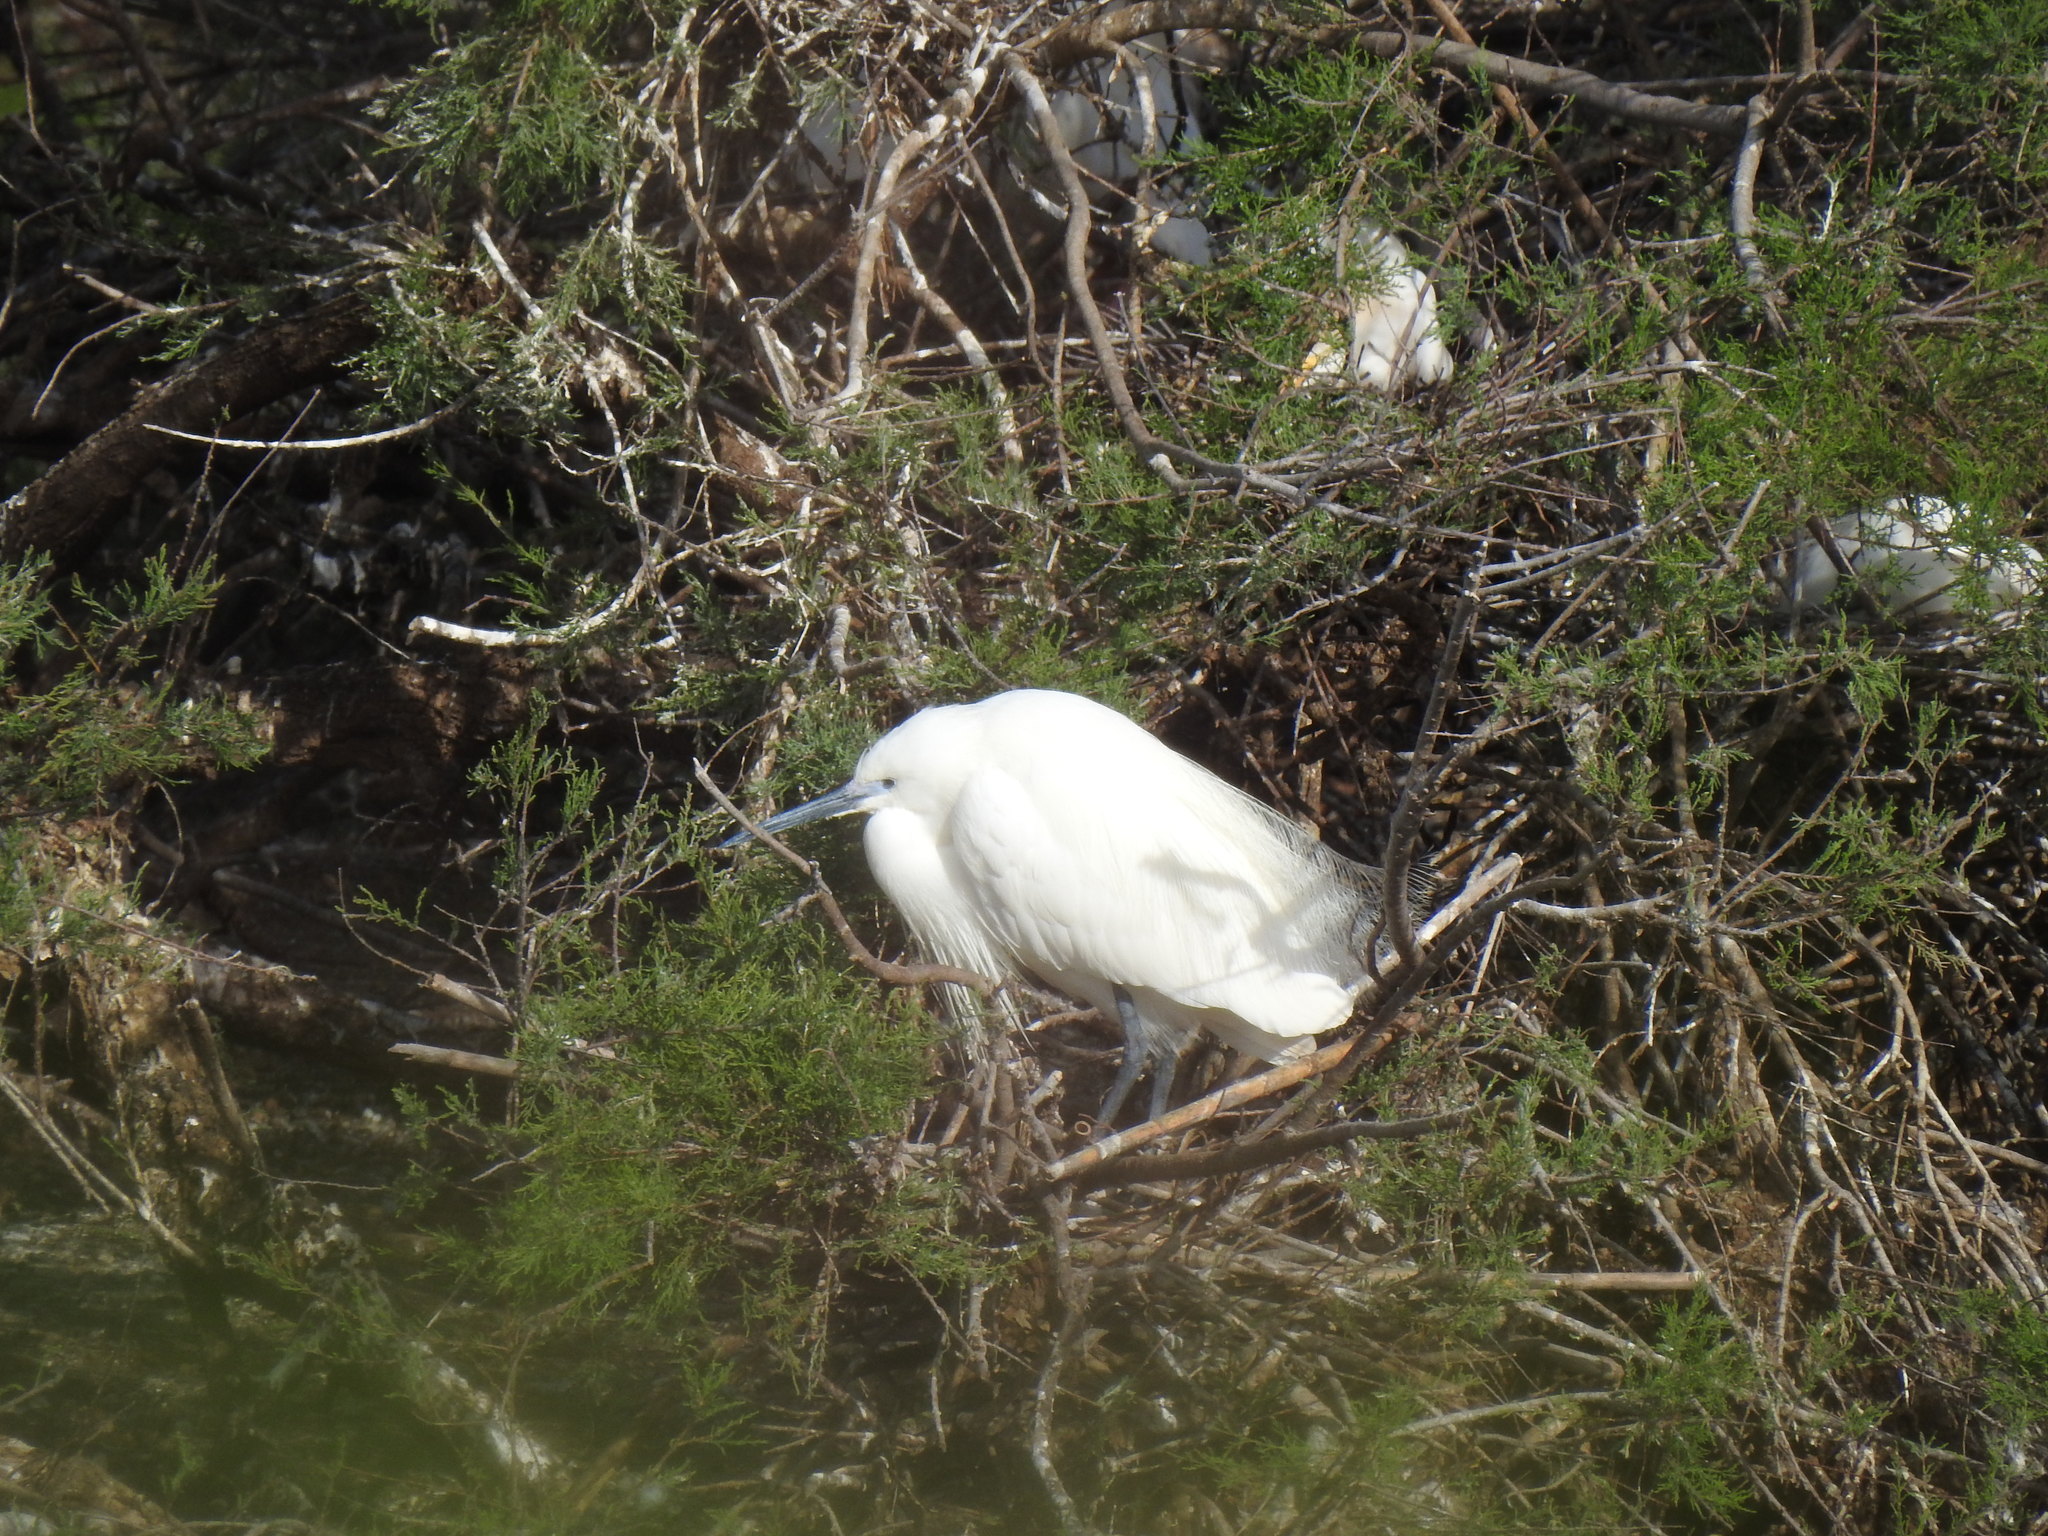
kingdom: Animalia
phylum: Chordata
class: Aves
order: Pelecaniformes
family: Ardeidae
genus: Egretta
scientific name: Egretta garzetta
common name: Little egret
